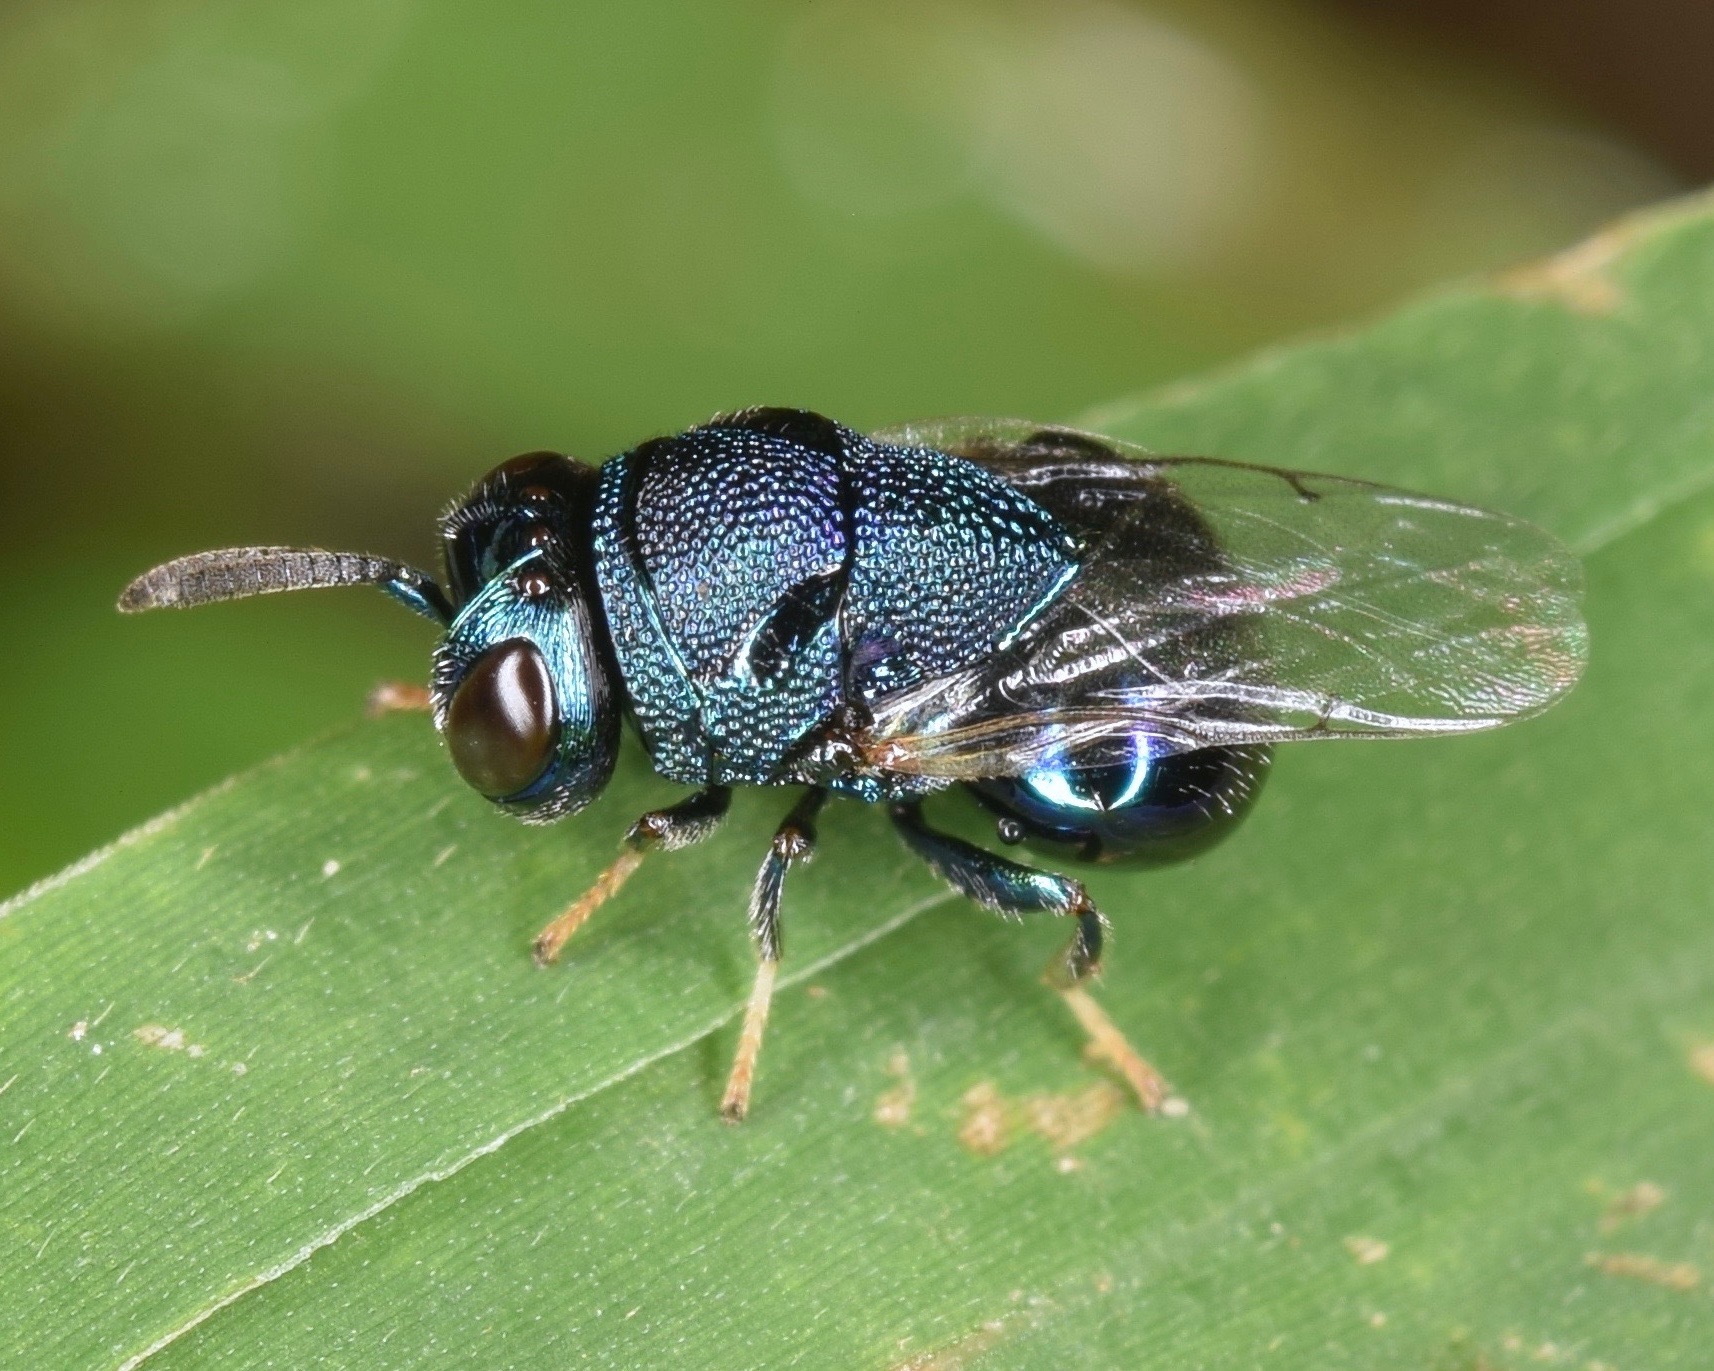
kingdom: Animalia
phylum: Arthropoda
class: Insecta
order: Hymenoptera
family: Perilampidae
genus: Perilampus
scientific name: Perilampus hyalinus
